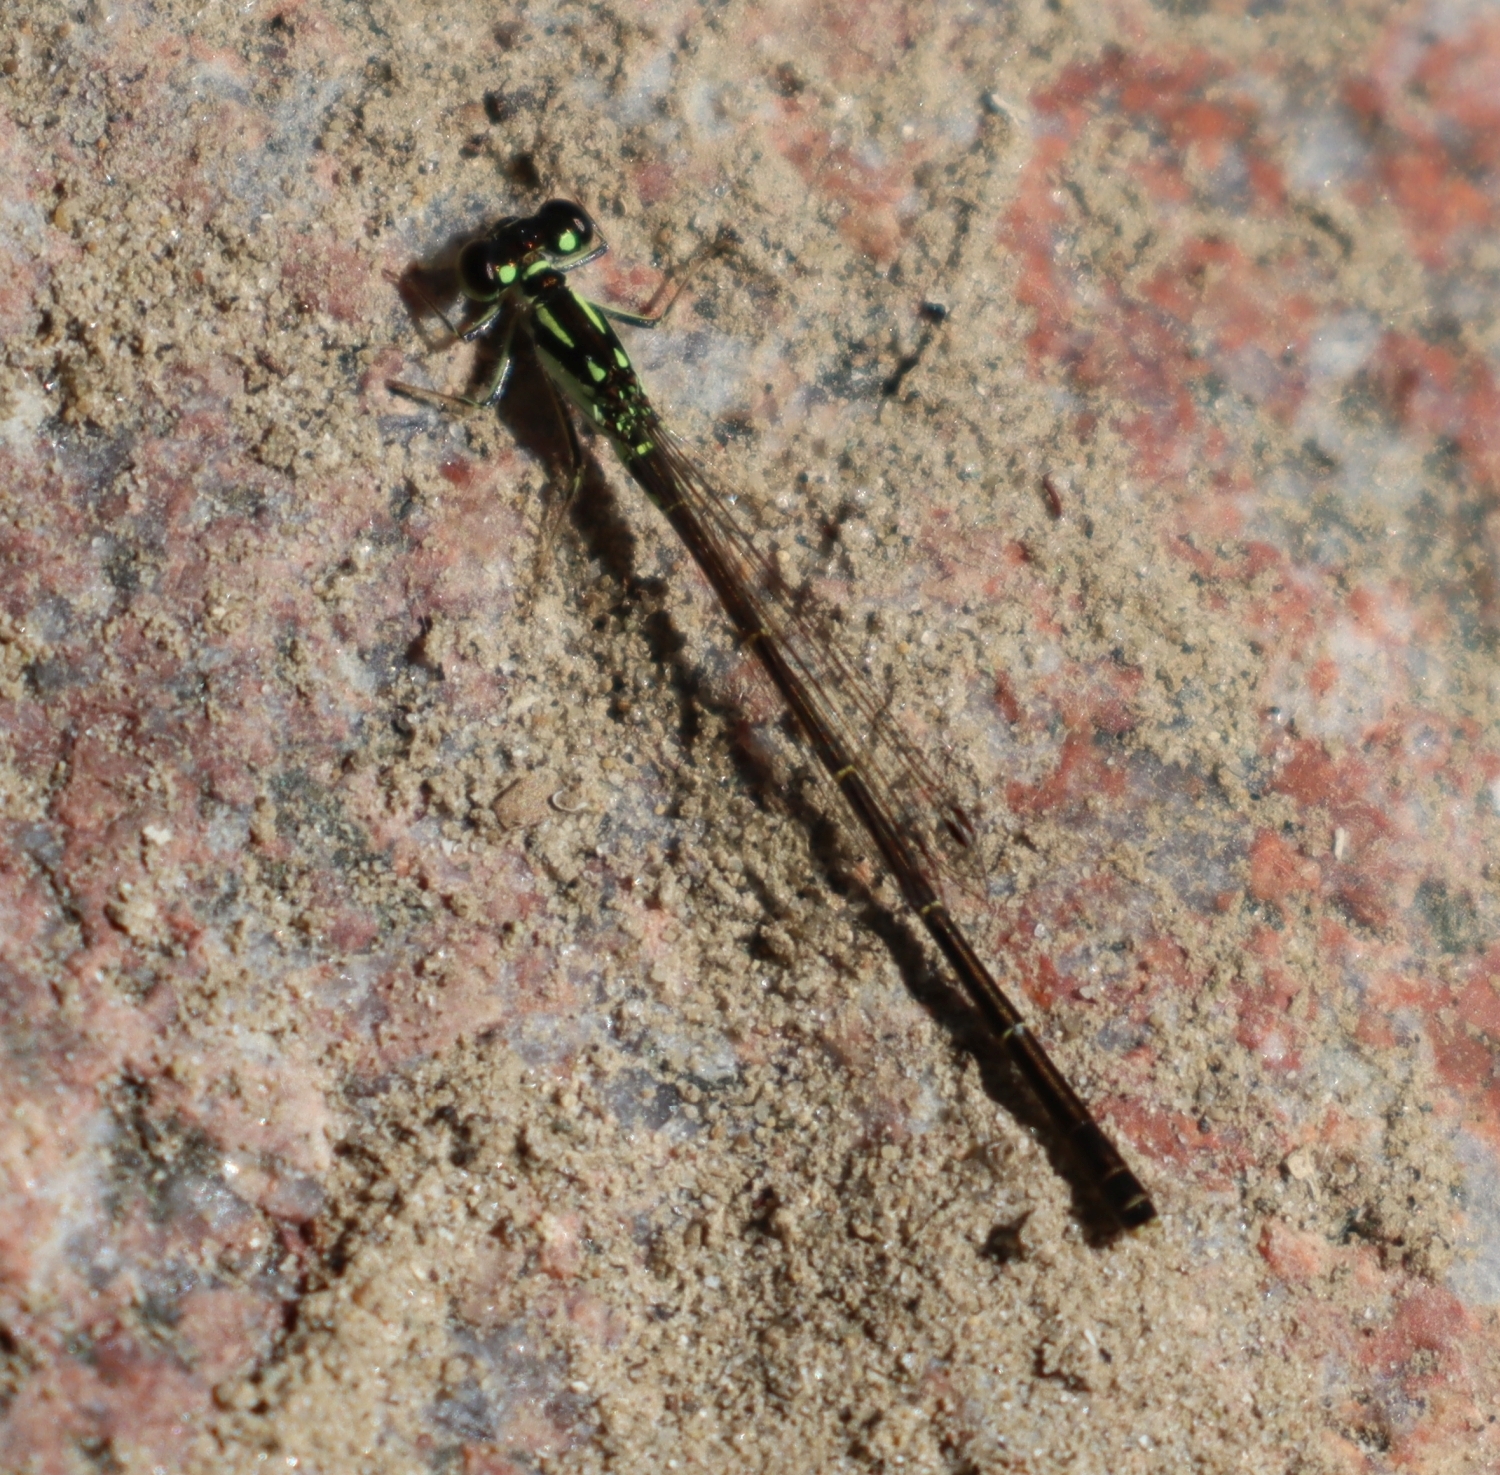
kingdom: Animalia
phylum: Arthropoda
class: Insecta
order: Odonata
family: Coenagrionidae
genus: Ischnura
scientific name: Ischnura posita
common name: Fragile forktail
